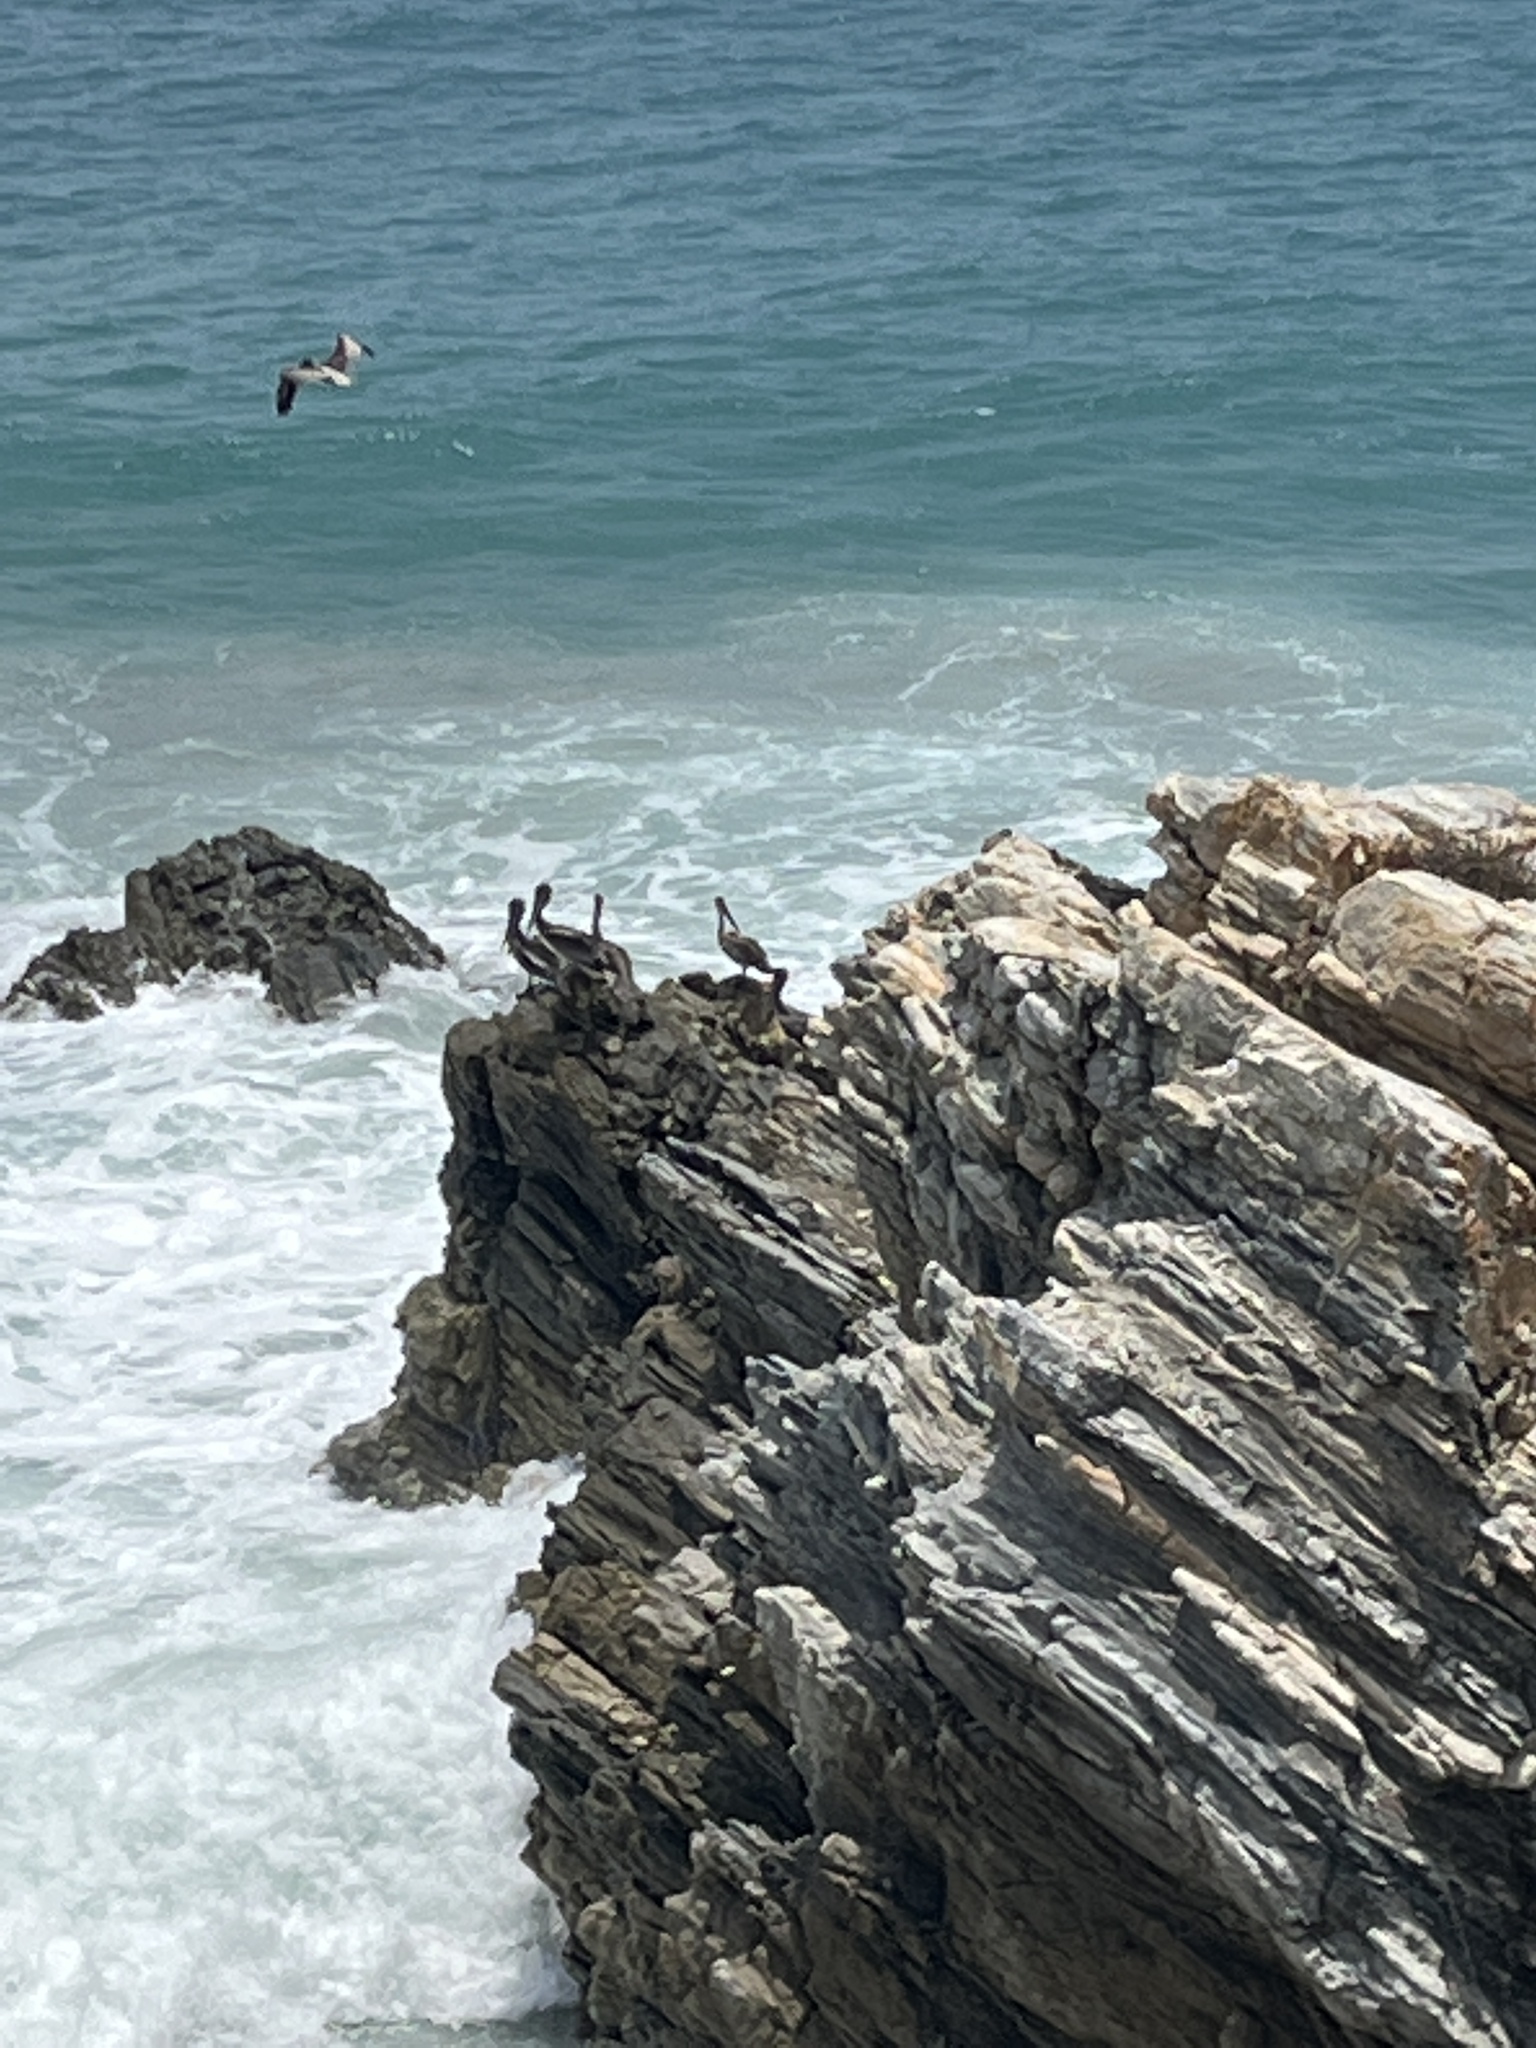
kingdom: Animalia
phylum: Chordata
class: Aves
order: Pelecaniformes
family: Pelecanidae
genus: Pelecanus
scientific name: Pelecanus occidentalis
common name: Brown pelican
